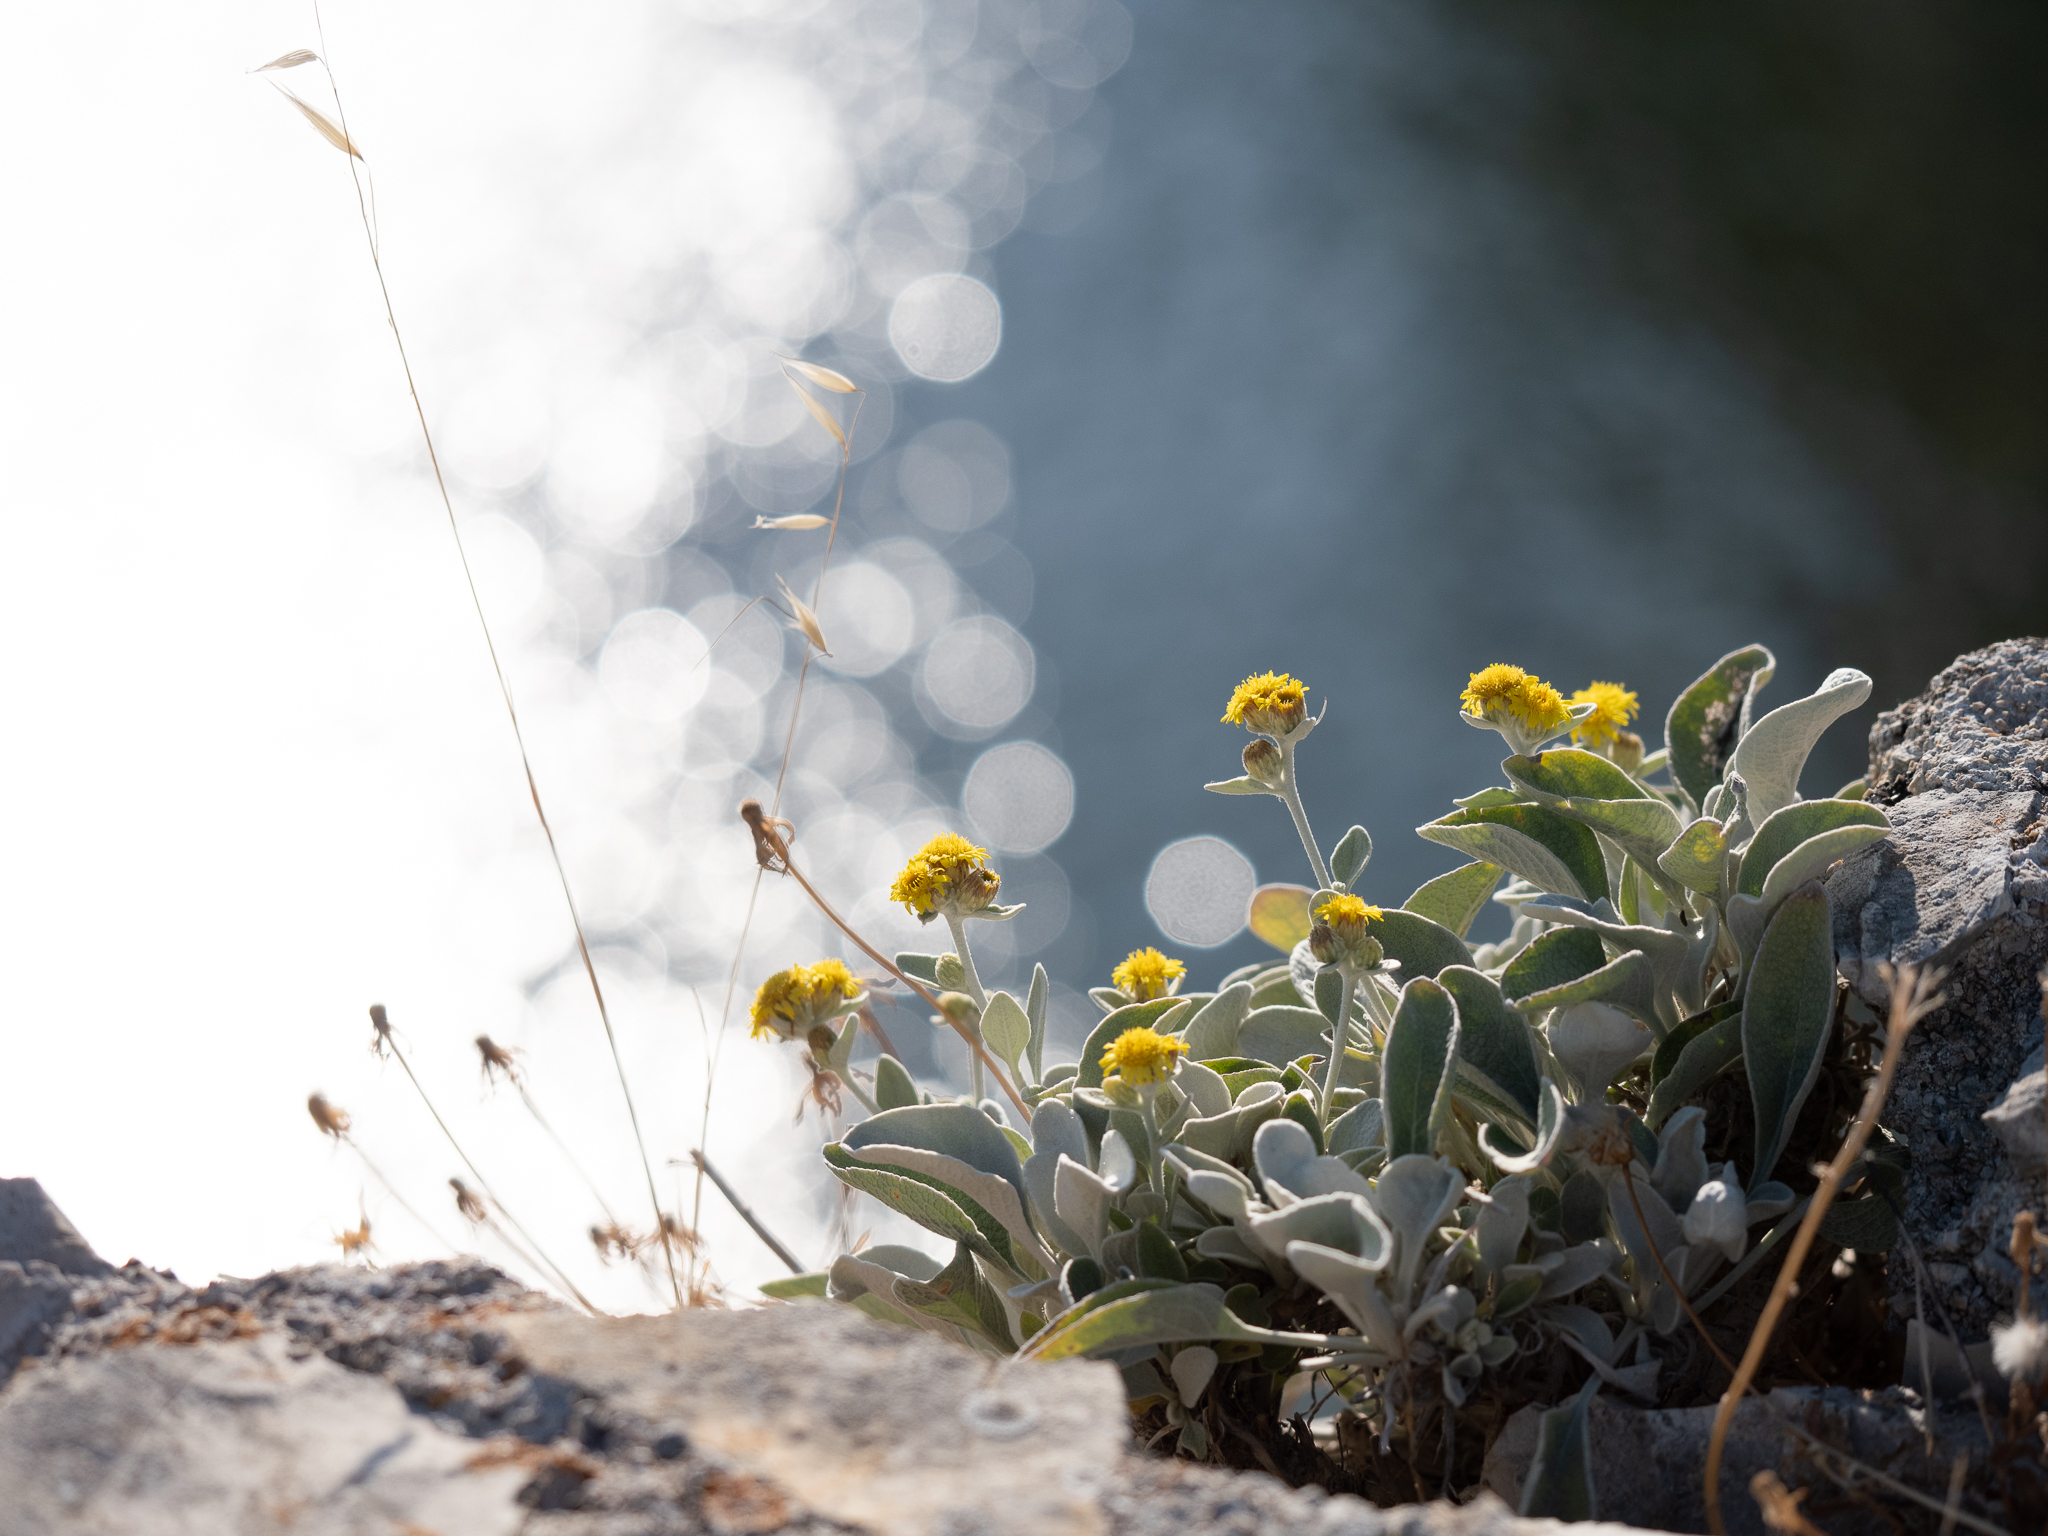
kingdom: Plantae
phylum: Tracheophyta
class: Magnoliopsida
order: Asterales
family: Asteraceae
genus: Pentanema
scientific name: Pentanema verbascifolium
